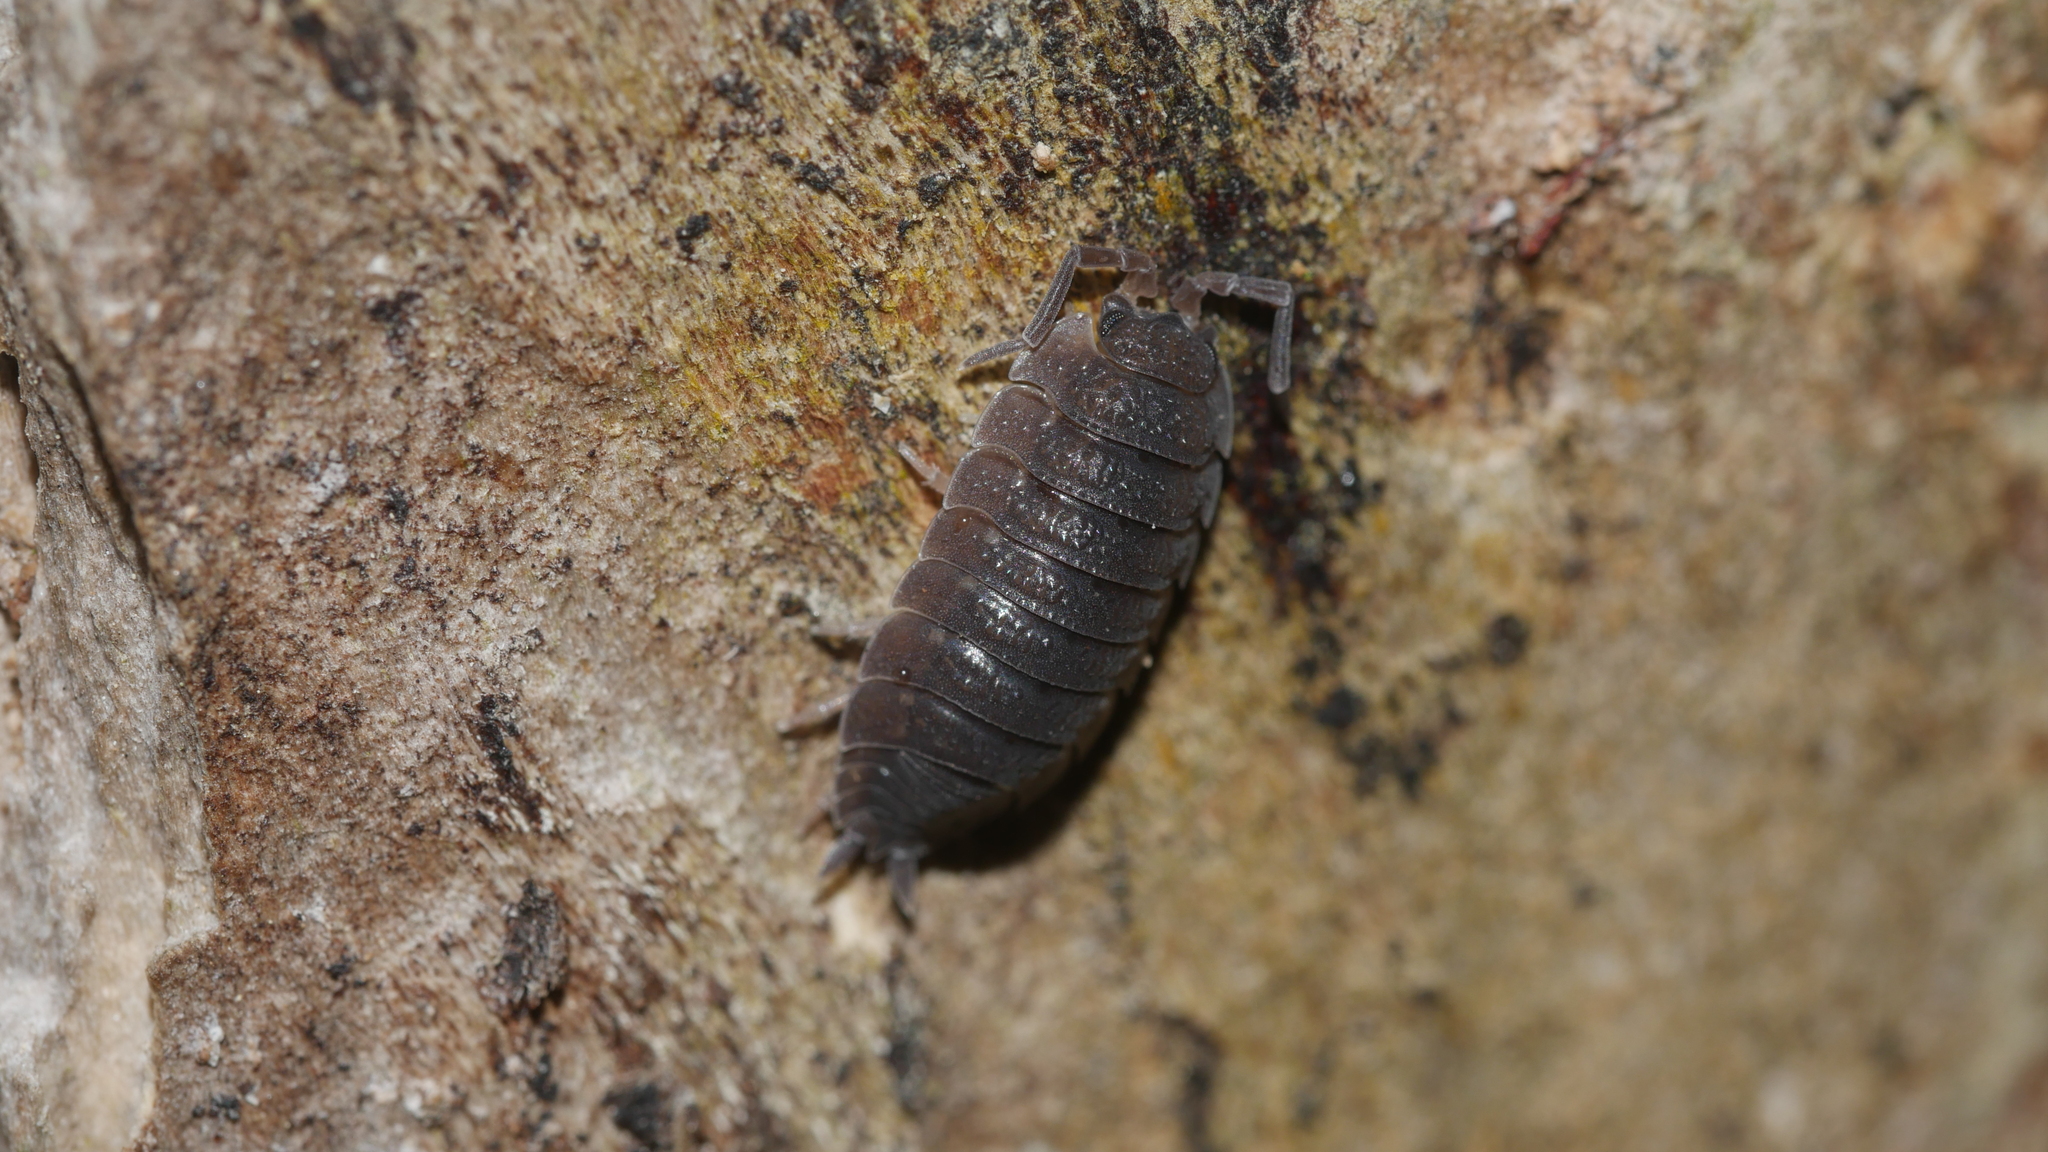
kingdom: Animalia
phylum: Arthropoda
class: Malacostraca
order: Isopoda
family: Porcellionidae
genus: Porcellio
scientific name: Porcellio scaber
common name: Common rough woodlouse
